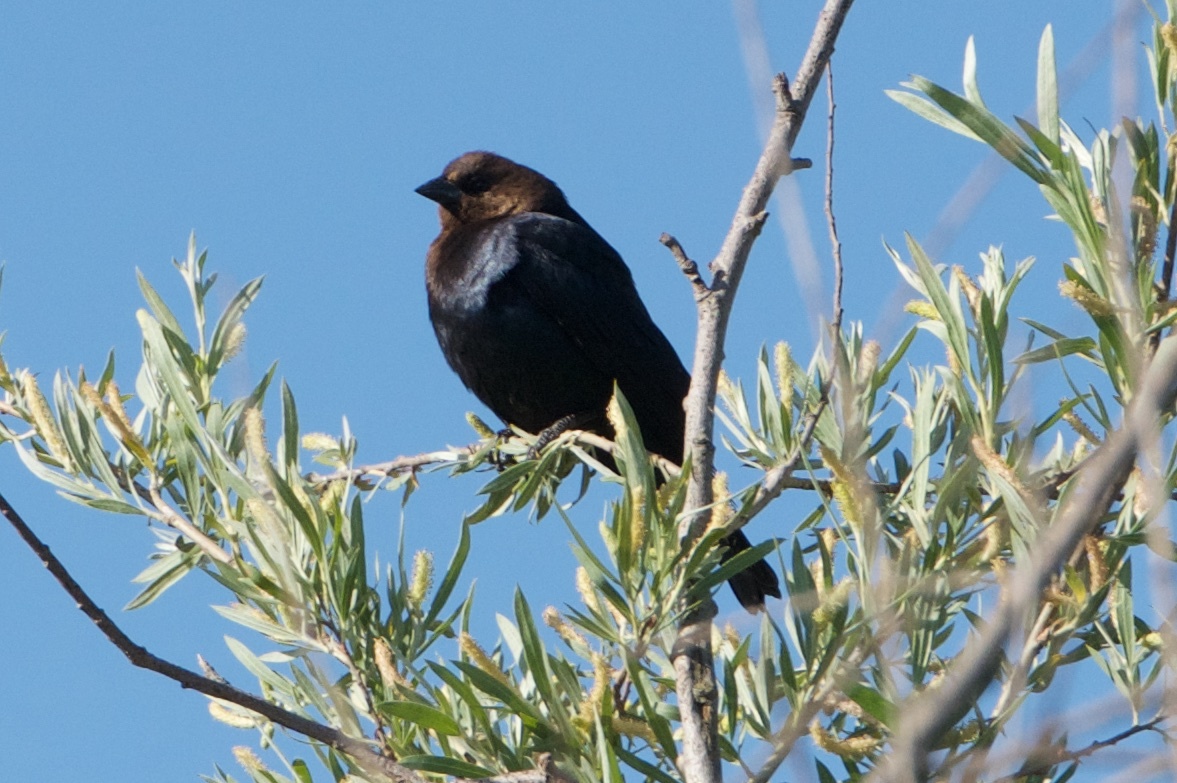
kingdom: Animalia
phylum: Chordata
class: Aves
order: Passeriformes
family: Icteridae
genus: Molothrus
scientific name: Molothrus ater
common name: Brown-headed cowbird
